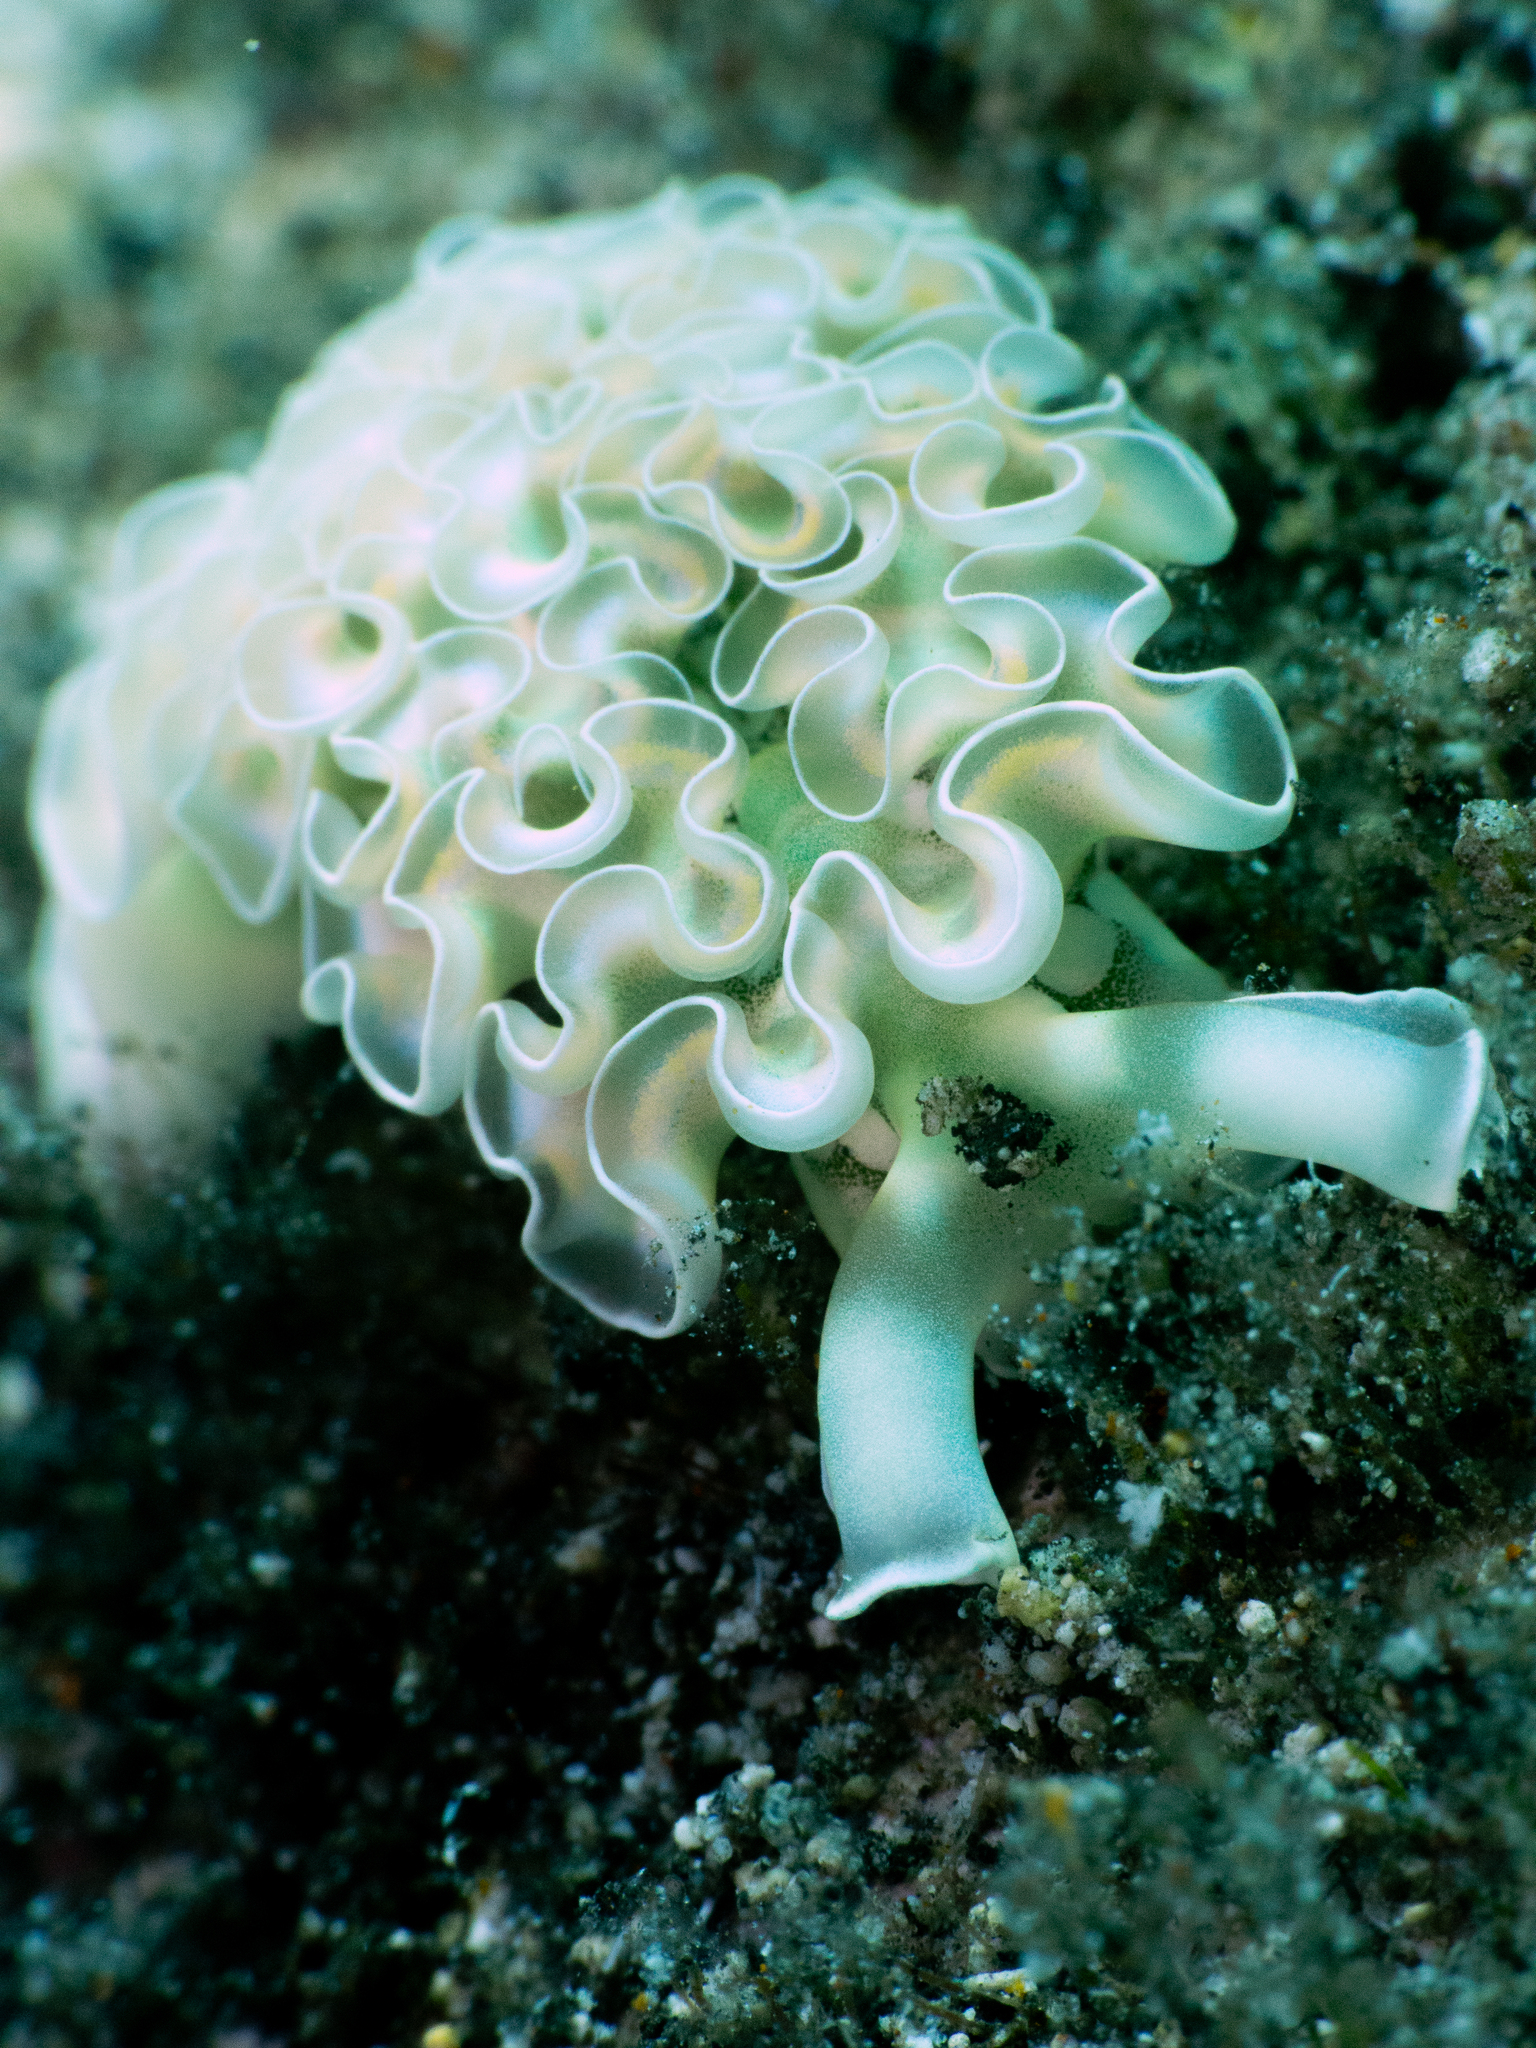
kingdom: Animalia
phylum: Mollusca
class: Gastropoda
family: Plakobranchidae
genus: Elysia
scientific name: Elysia crispata
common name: Lettuce slug
